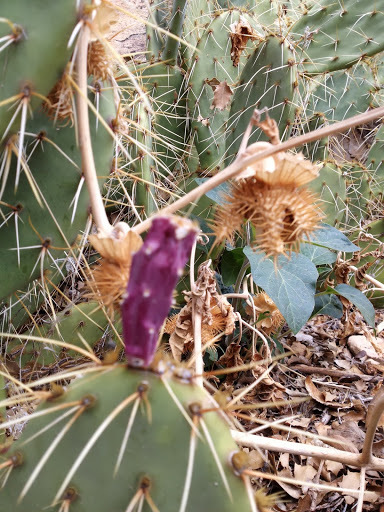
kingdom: Plantae
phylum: Tracheophyta
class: Magnoliopsida
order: Caryophyllales
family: Cactaceae
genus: Opuntia
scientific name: Opuntia phaeacantha
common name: New mexico prickly-pear
